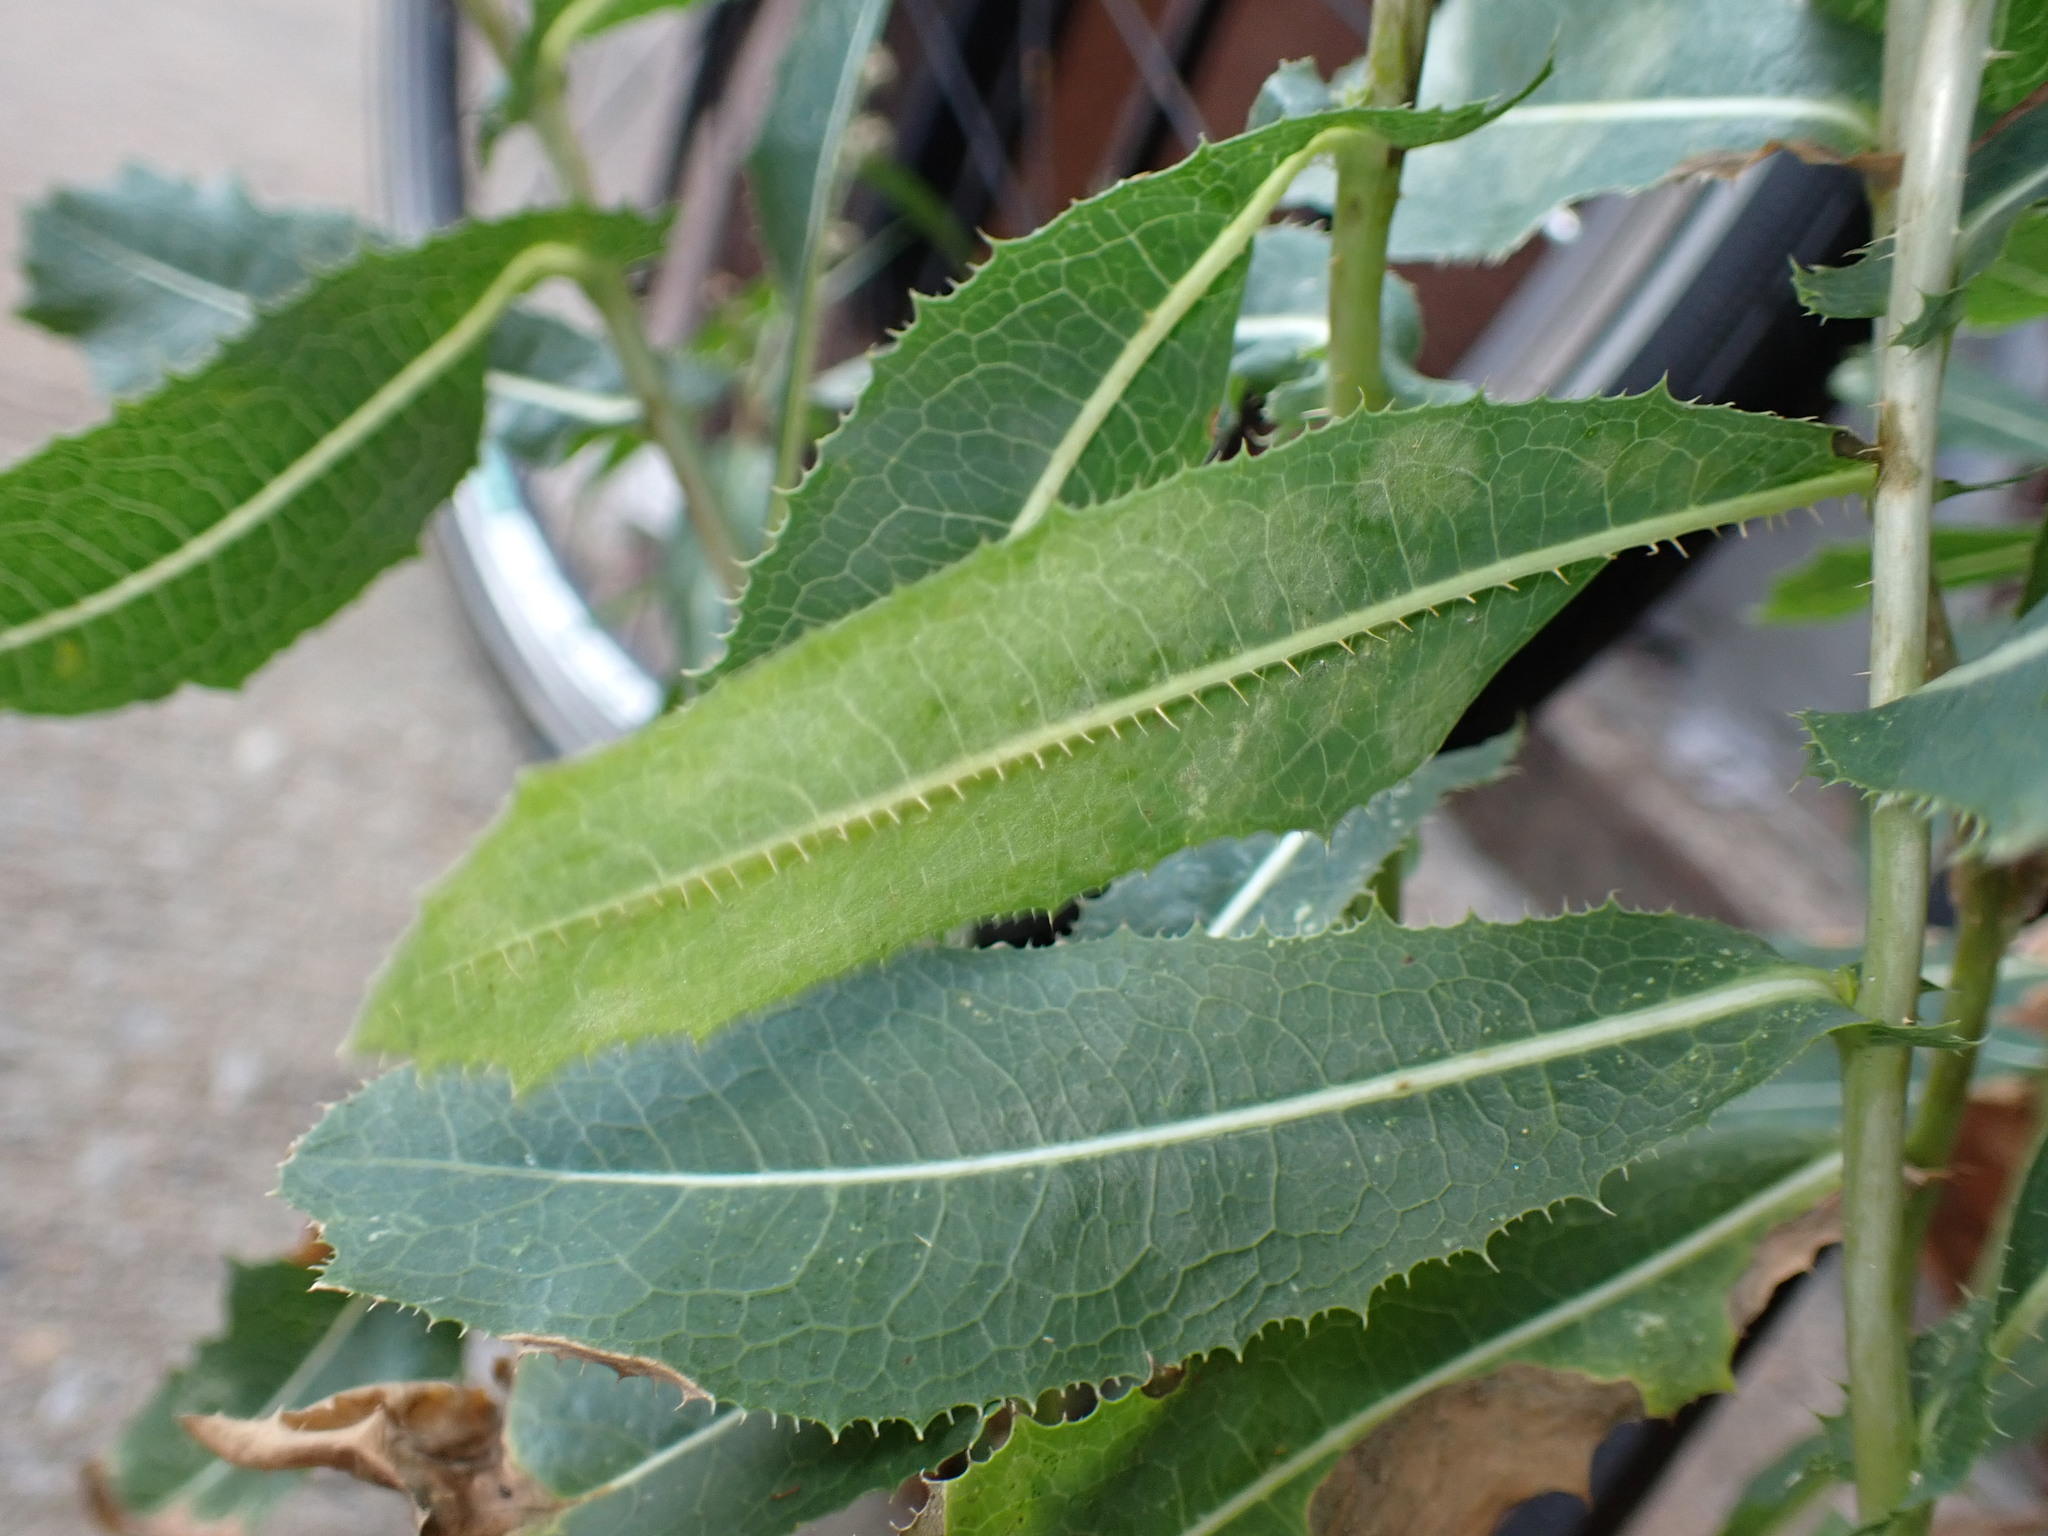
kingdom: Plantae
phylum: Tracheophyta
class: Magnoliopsida
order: Asterales
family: Asteraceae
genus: Lactuca
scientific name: Lactuca serriola
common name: Prickly lettuce
